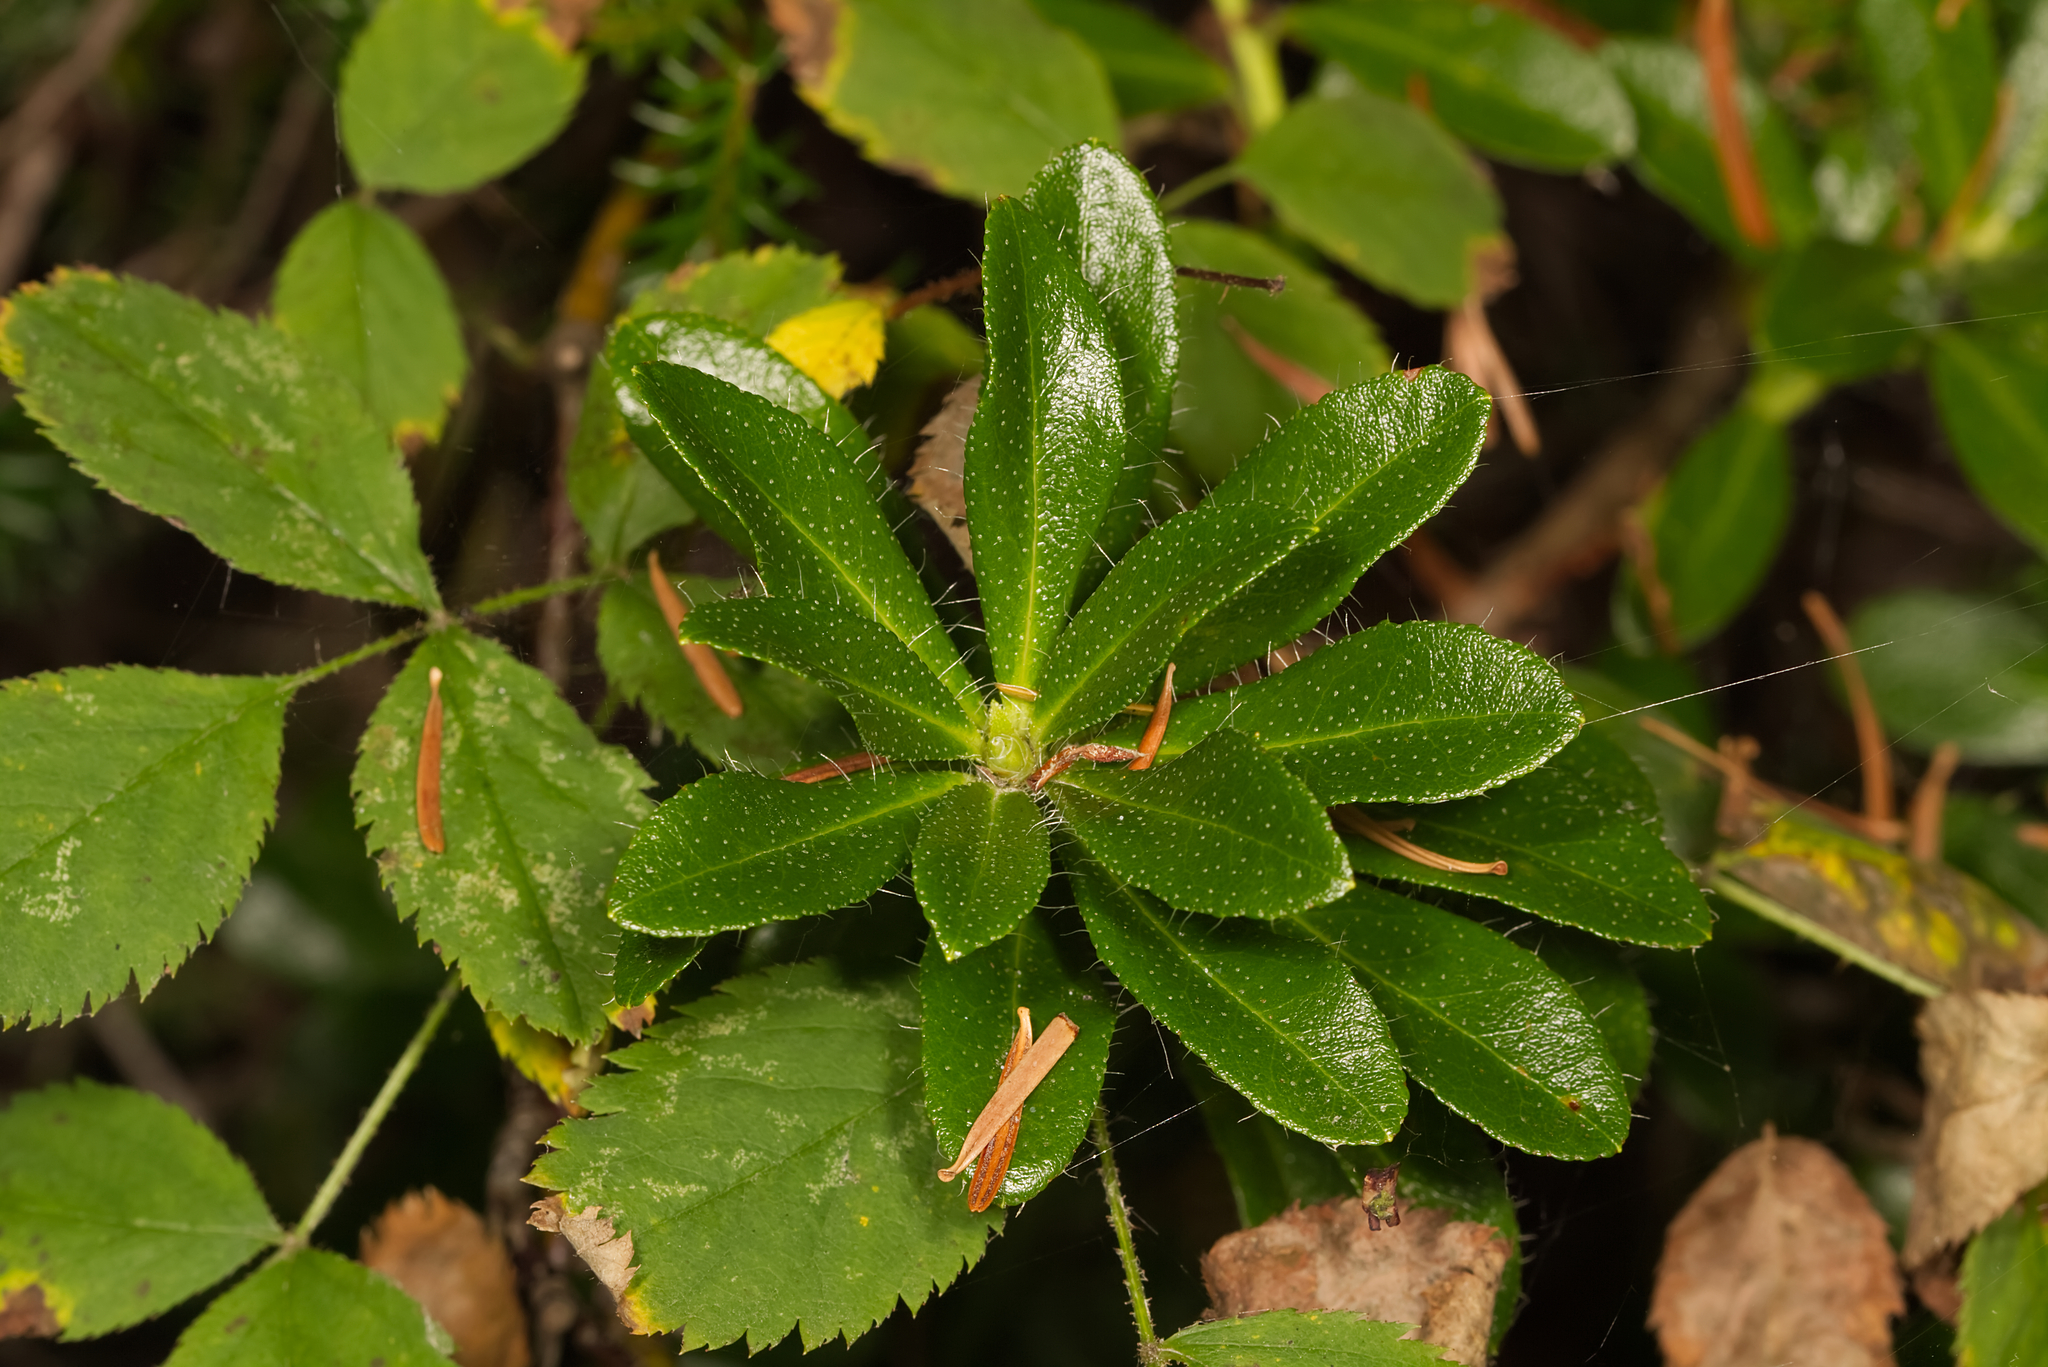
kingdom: Plantae
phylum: Tracheophyta
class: Magnoliopsida
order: Ericales
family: Ericaceae
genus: Rhododendron
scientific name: Rhododendron hirsutum
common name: Hairy alpenrose
